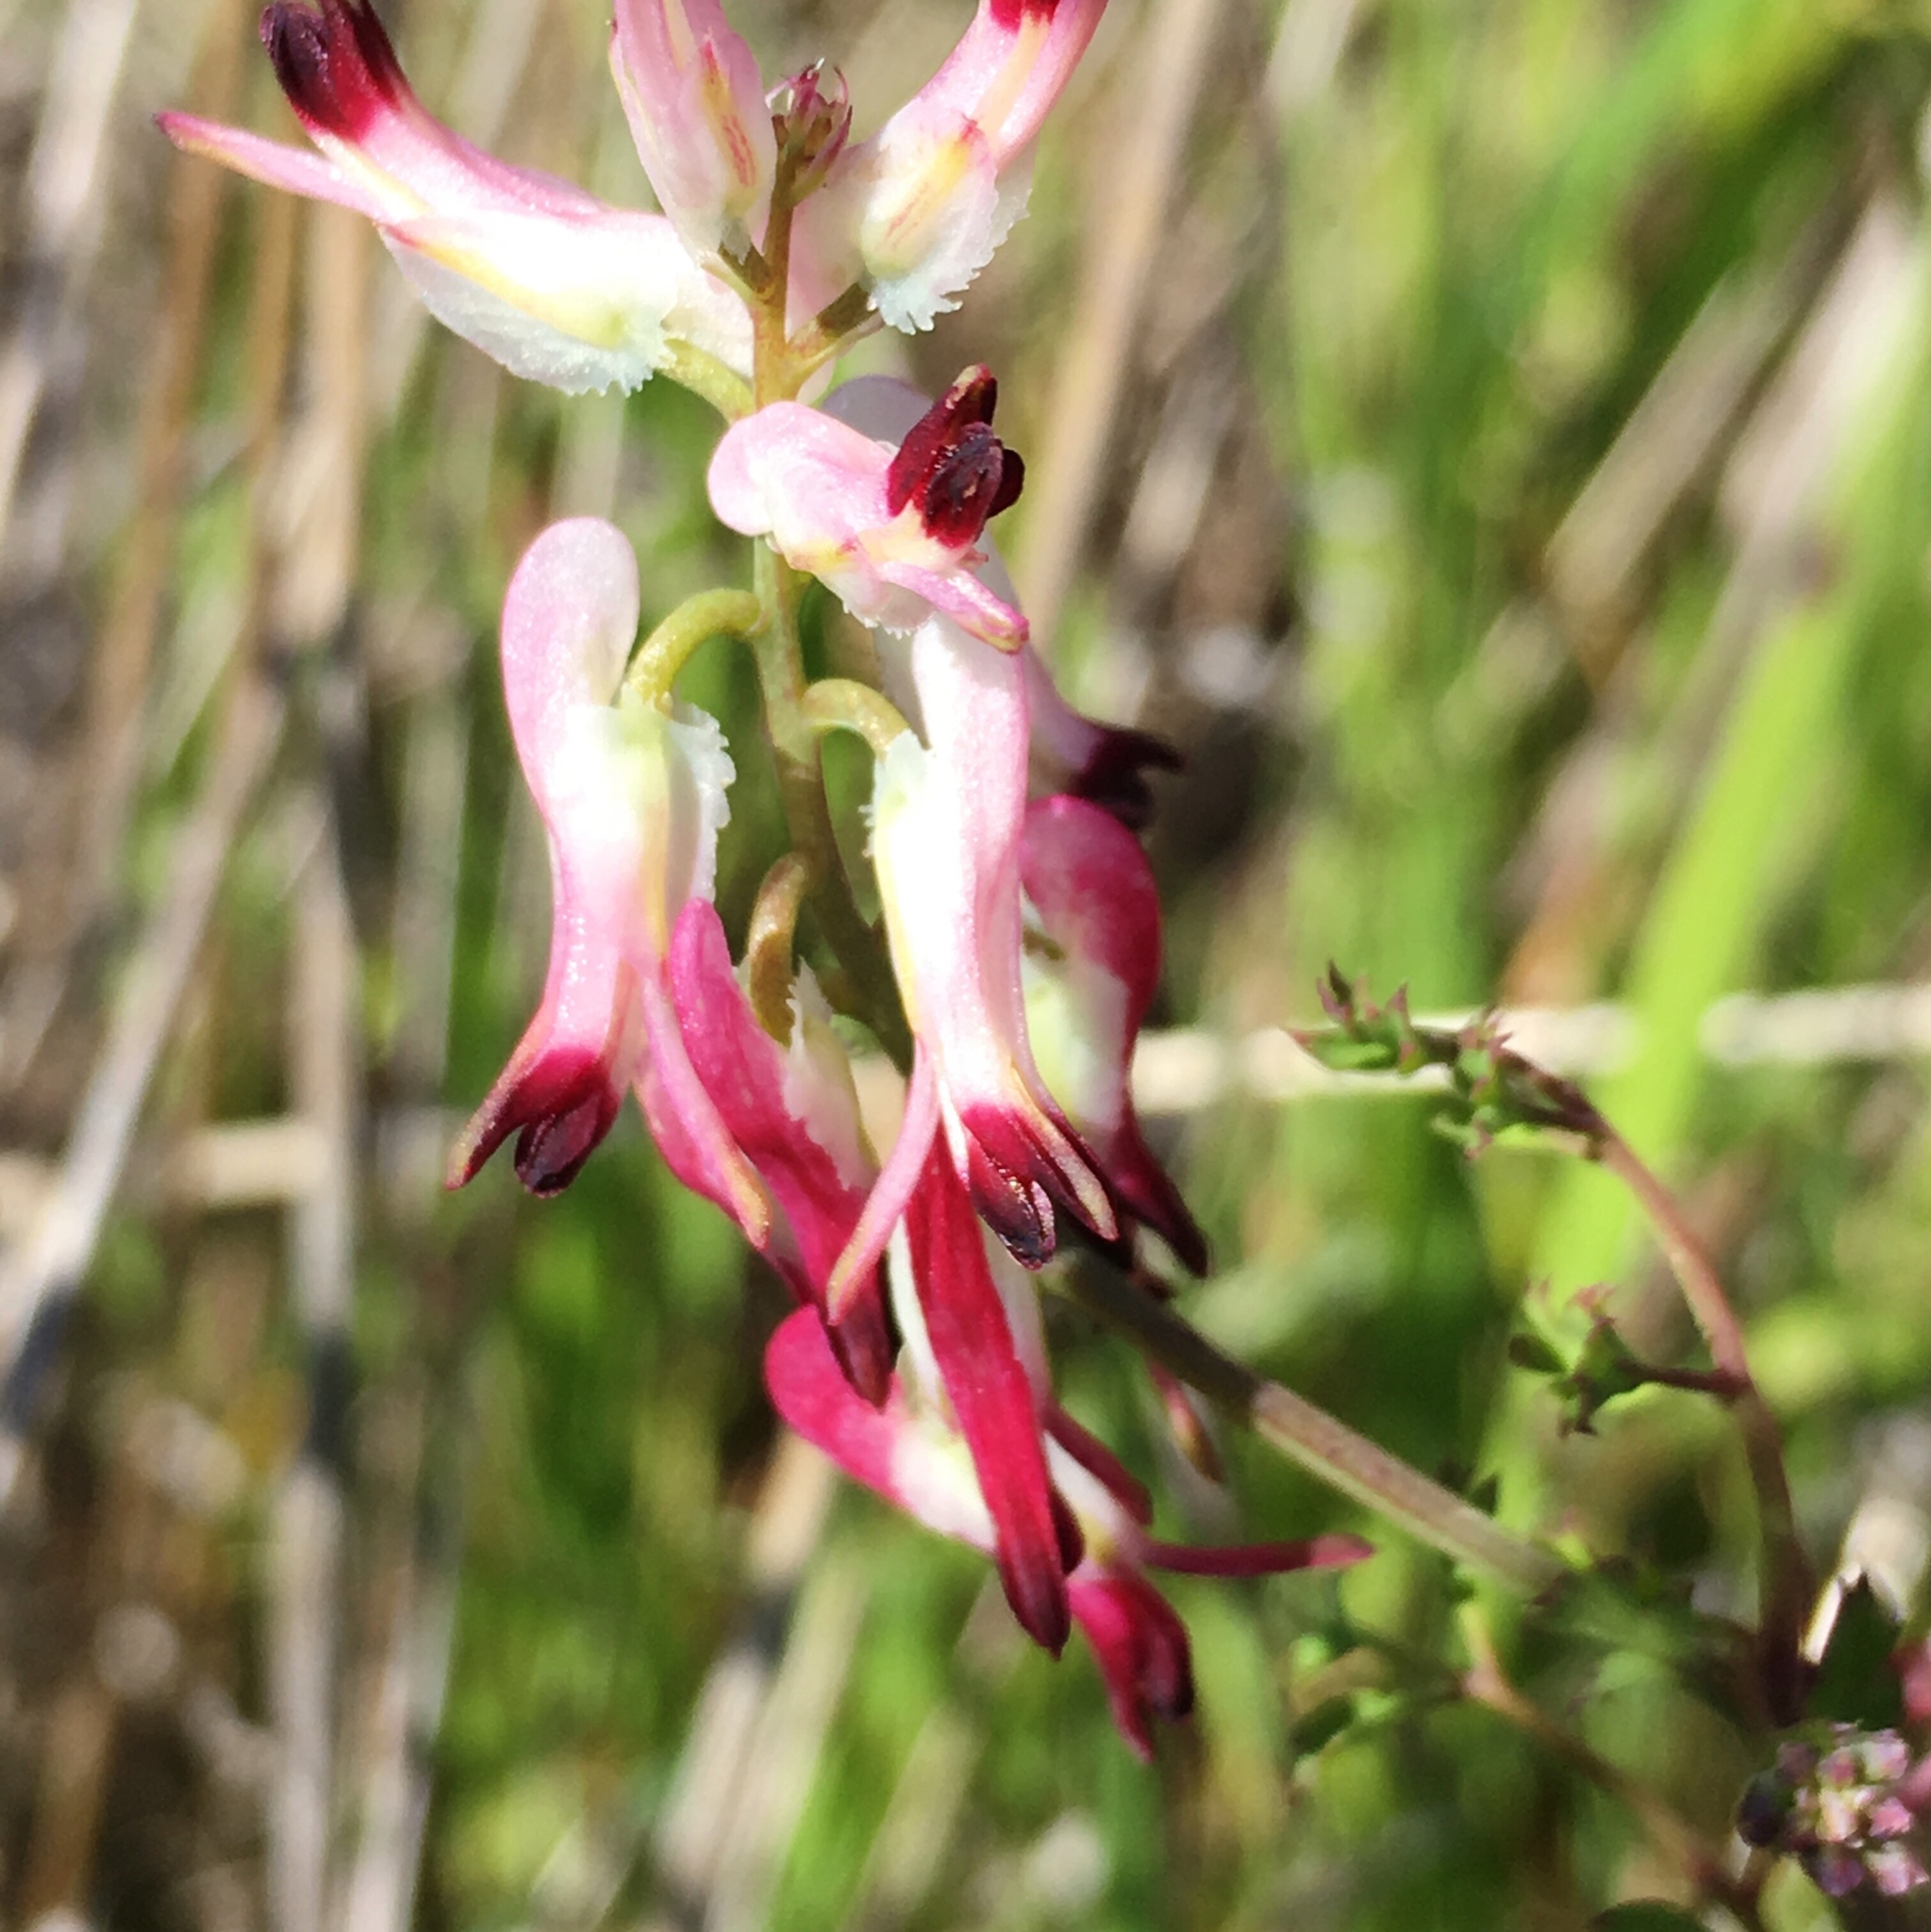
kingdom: Plantae
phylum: Tracheophyta
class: Magnoliopsida
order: Ranunculales
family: Papaveraceae
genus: Fumaria
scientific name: Fumaria capreolata
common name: White ramping-fumitory
